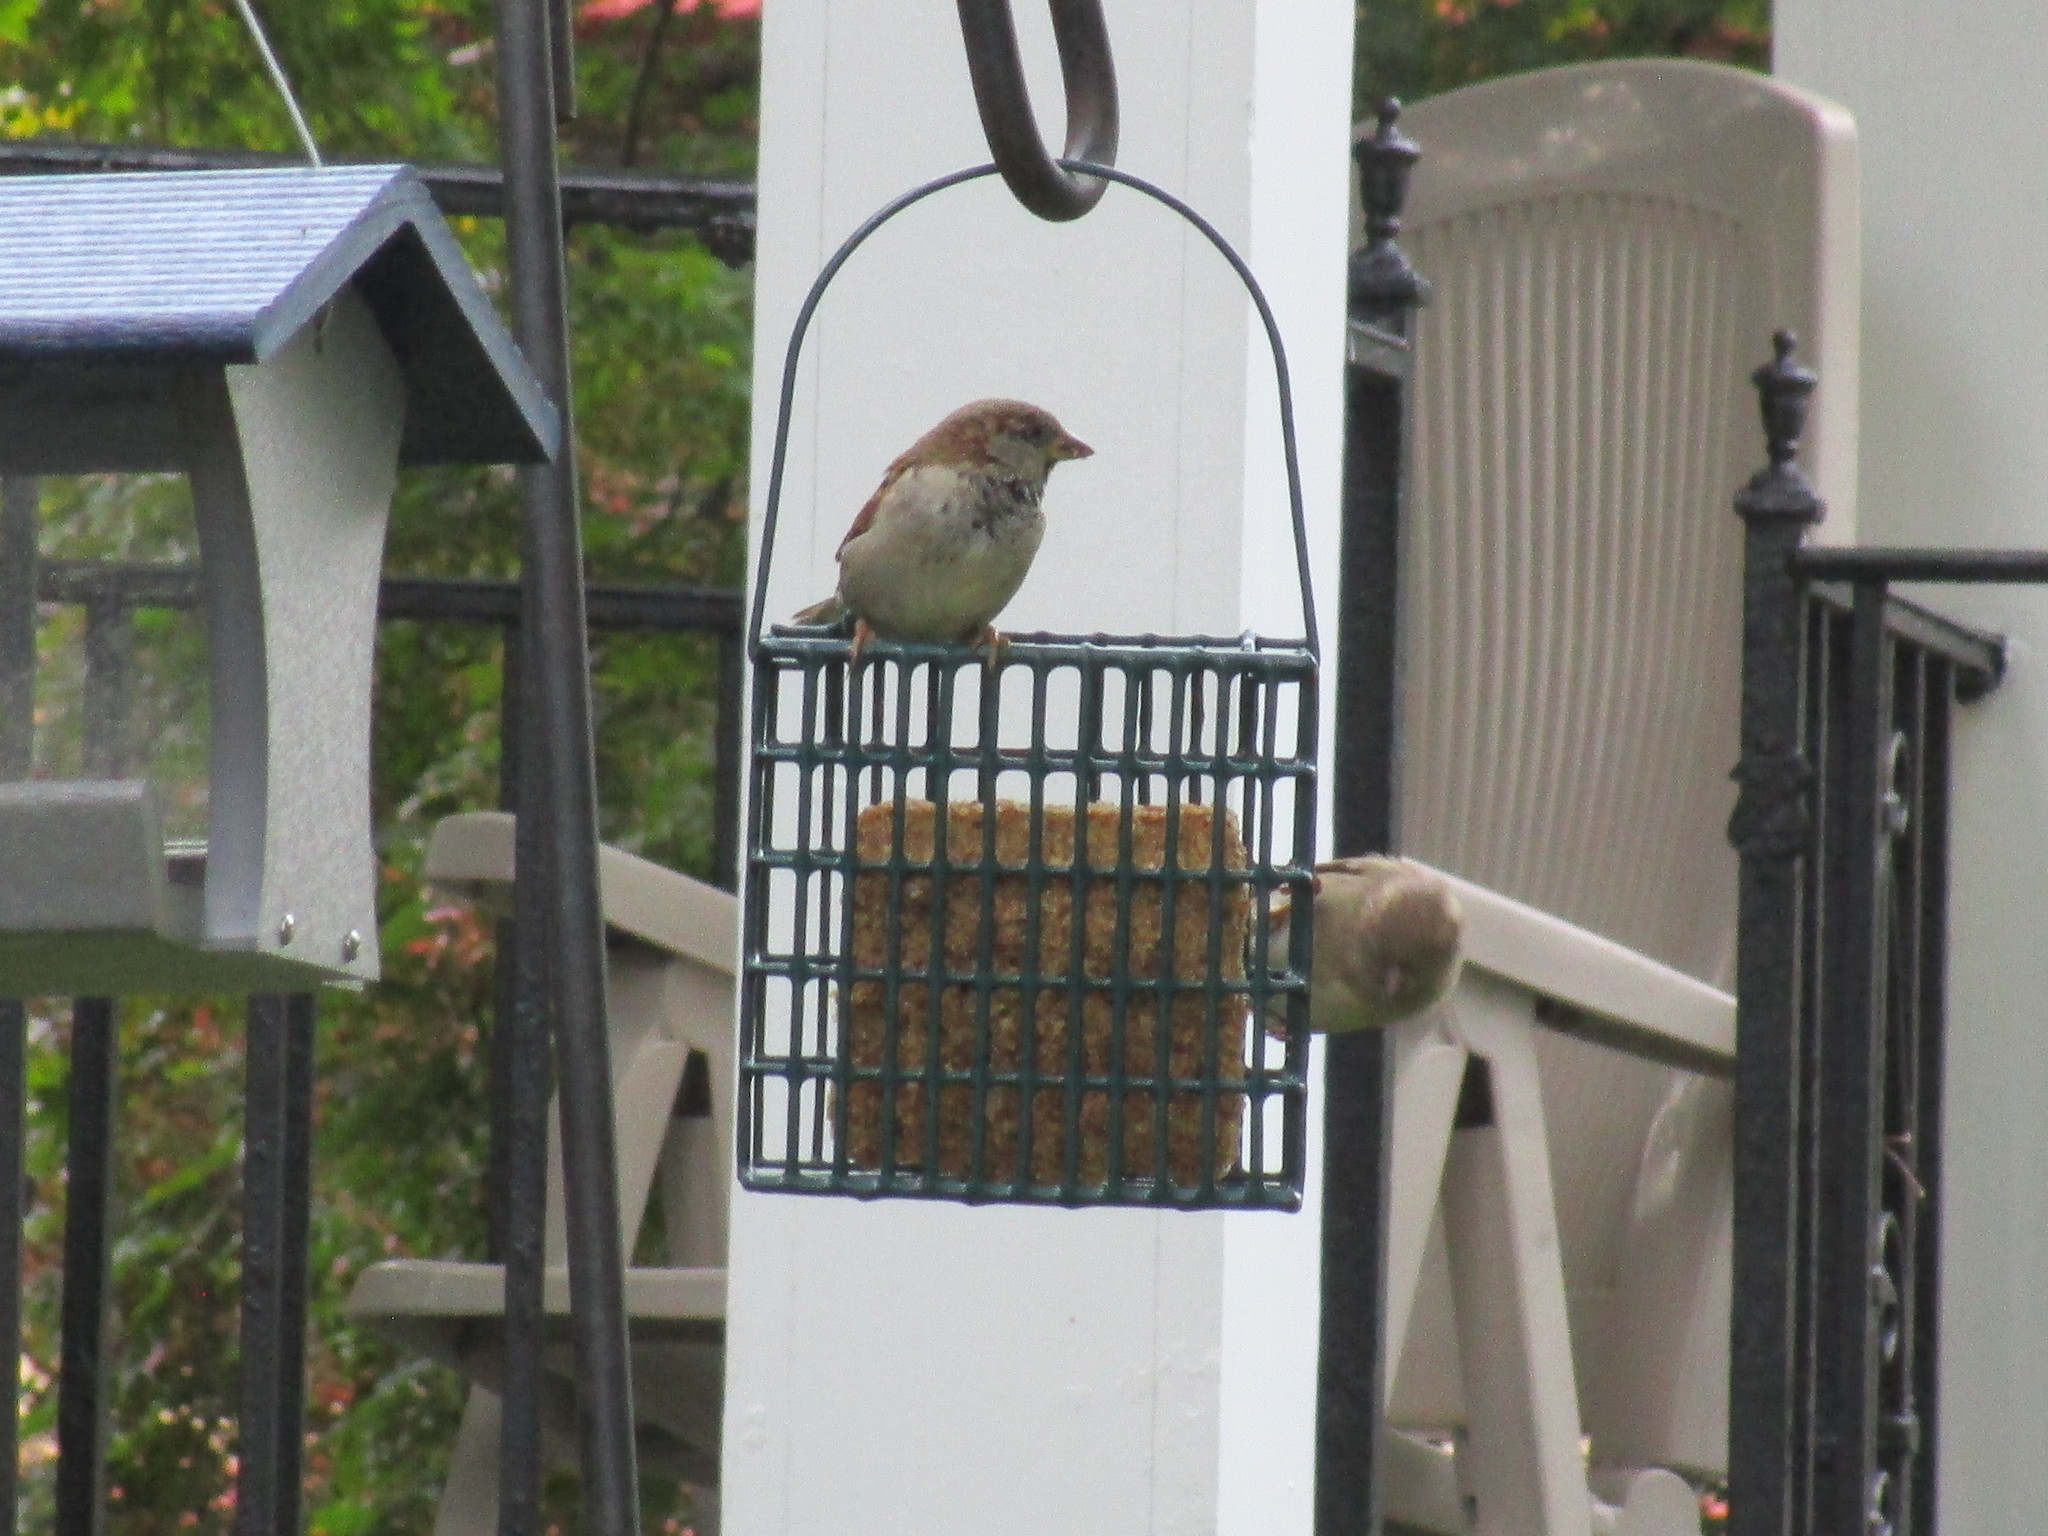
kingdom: Animalia
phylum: Chordata
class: Aves
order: Passeriformes
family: Passeridae
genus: Passer
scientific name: Passer domesticus
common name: House sparrow
